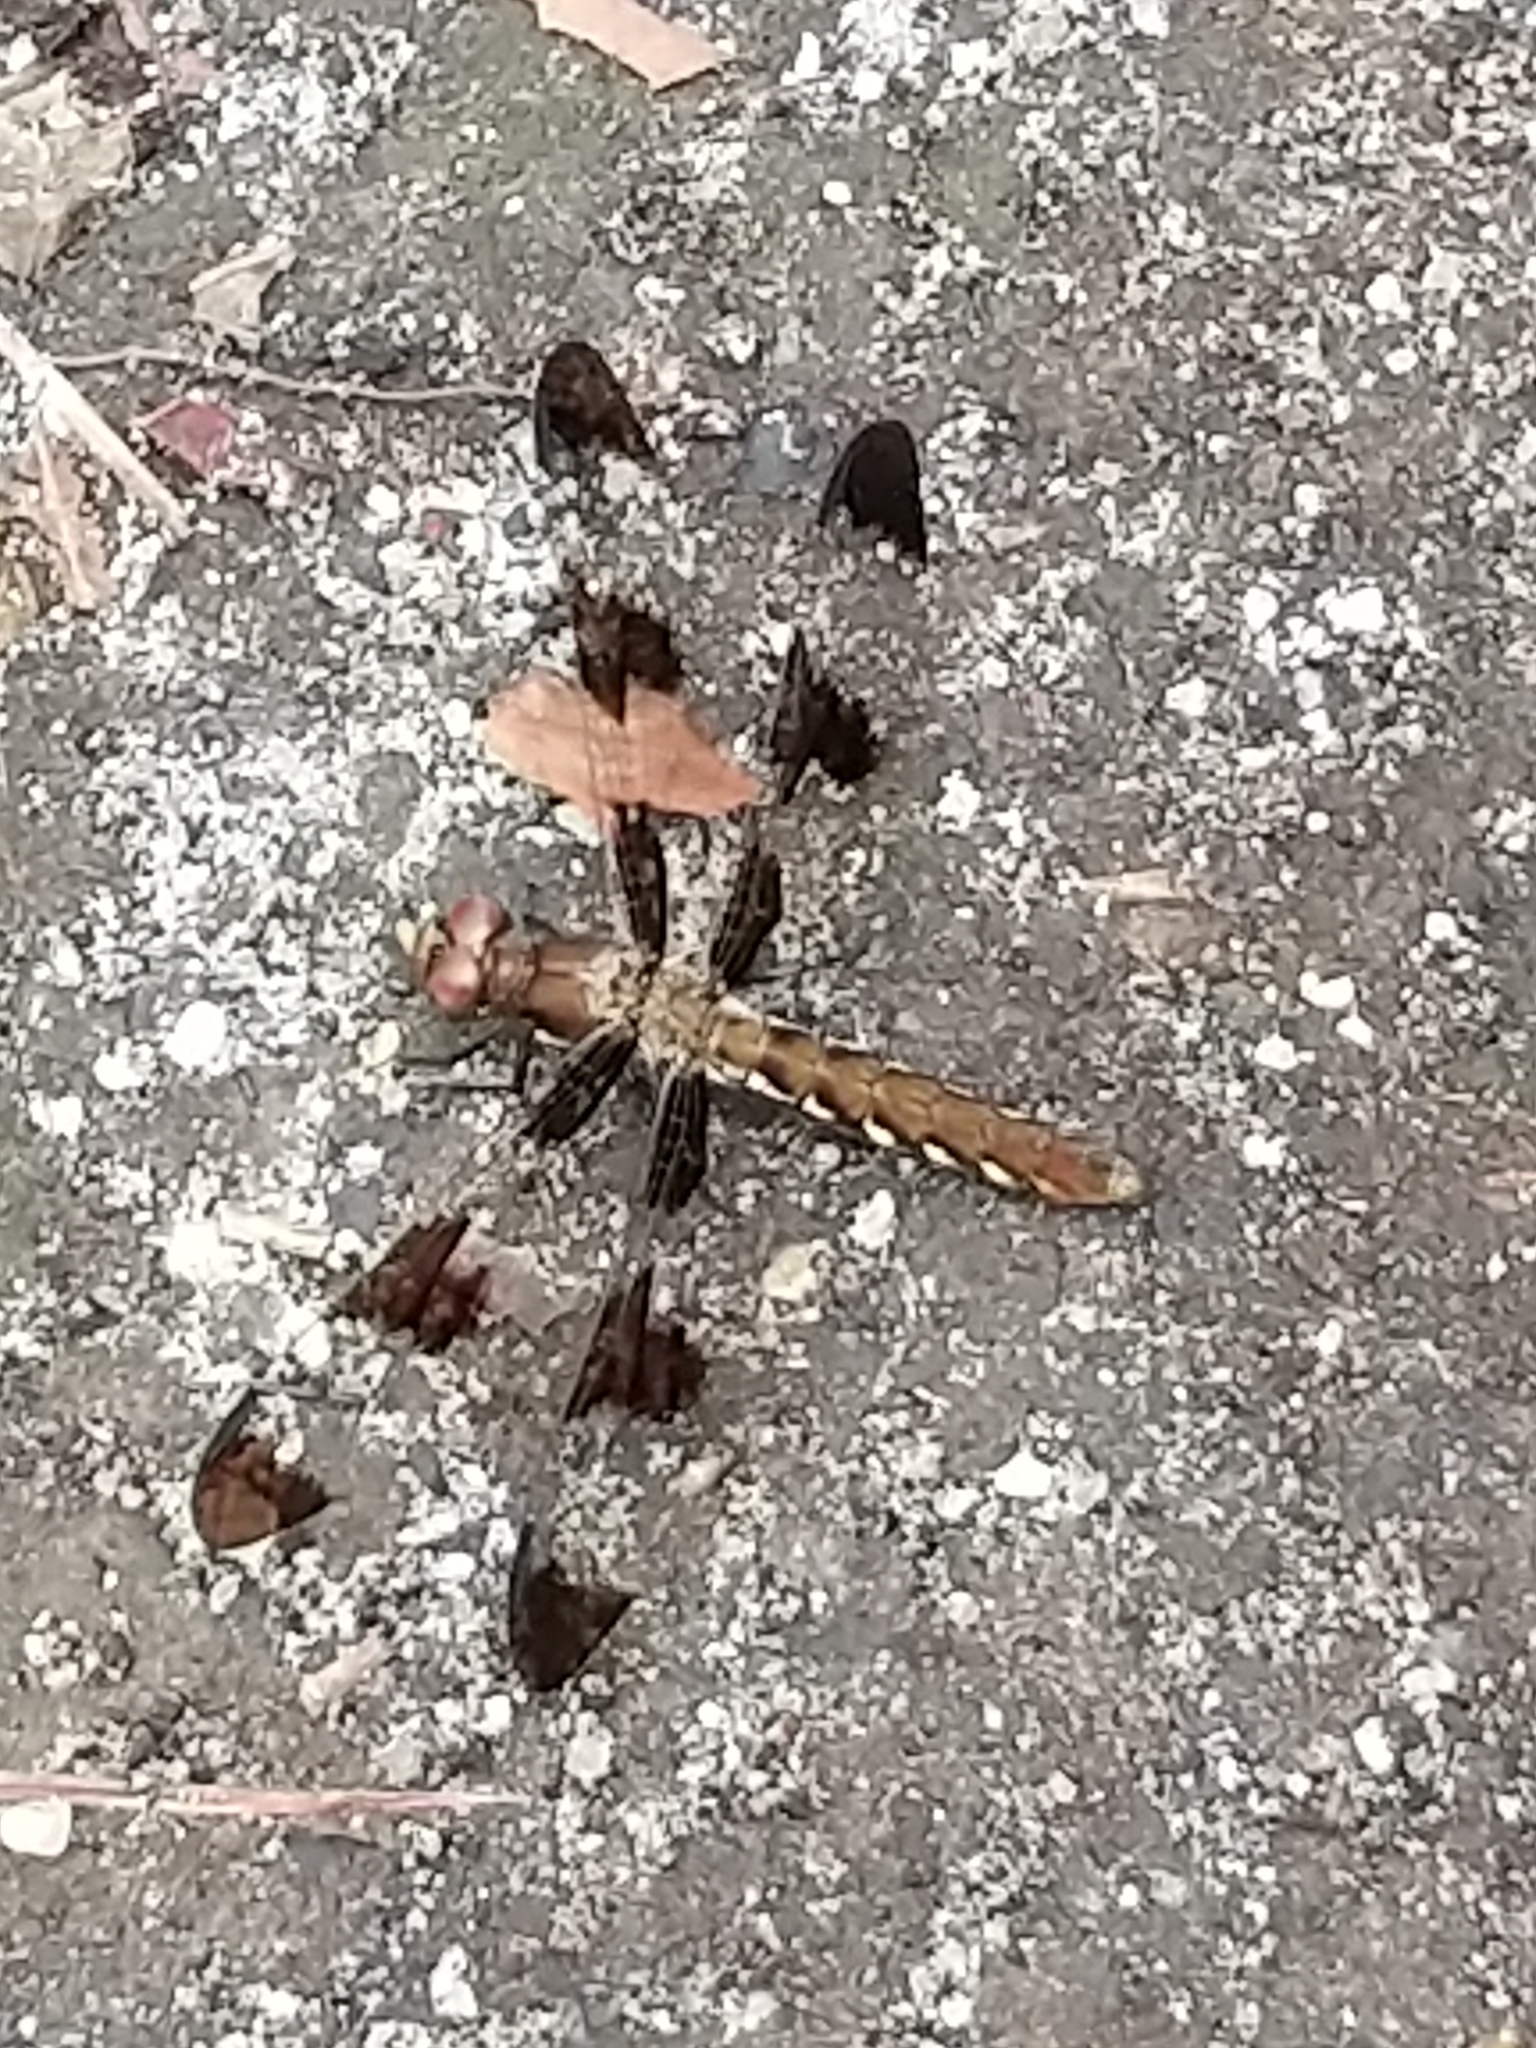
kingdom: Animalia
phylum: Arthropoda
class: Insecta
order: Odonata
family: Libellulidae
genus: Plathemis
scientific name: Plathemis lydia
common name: Common whitetail
